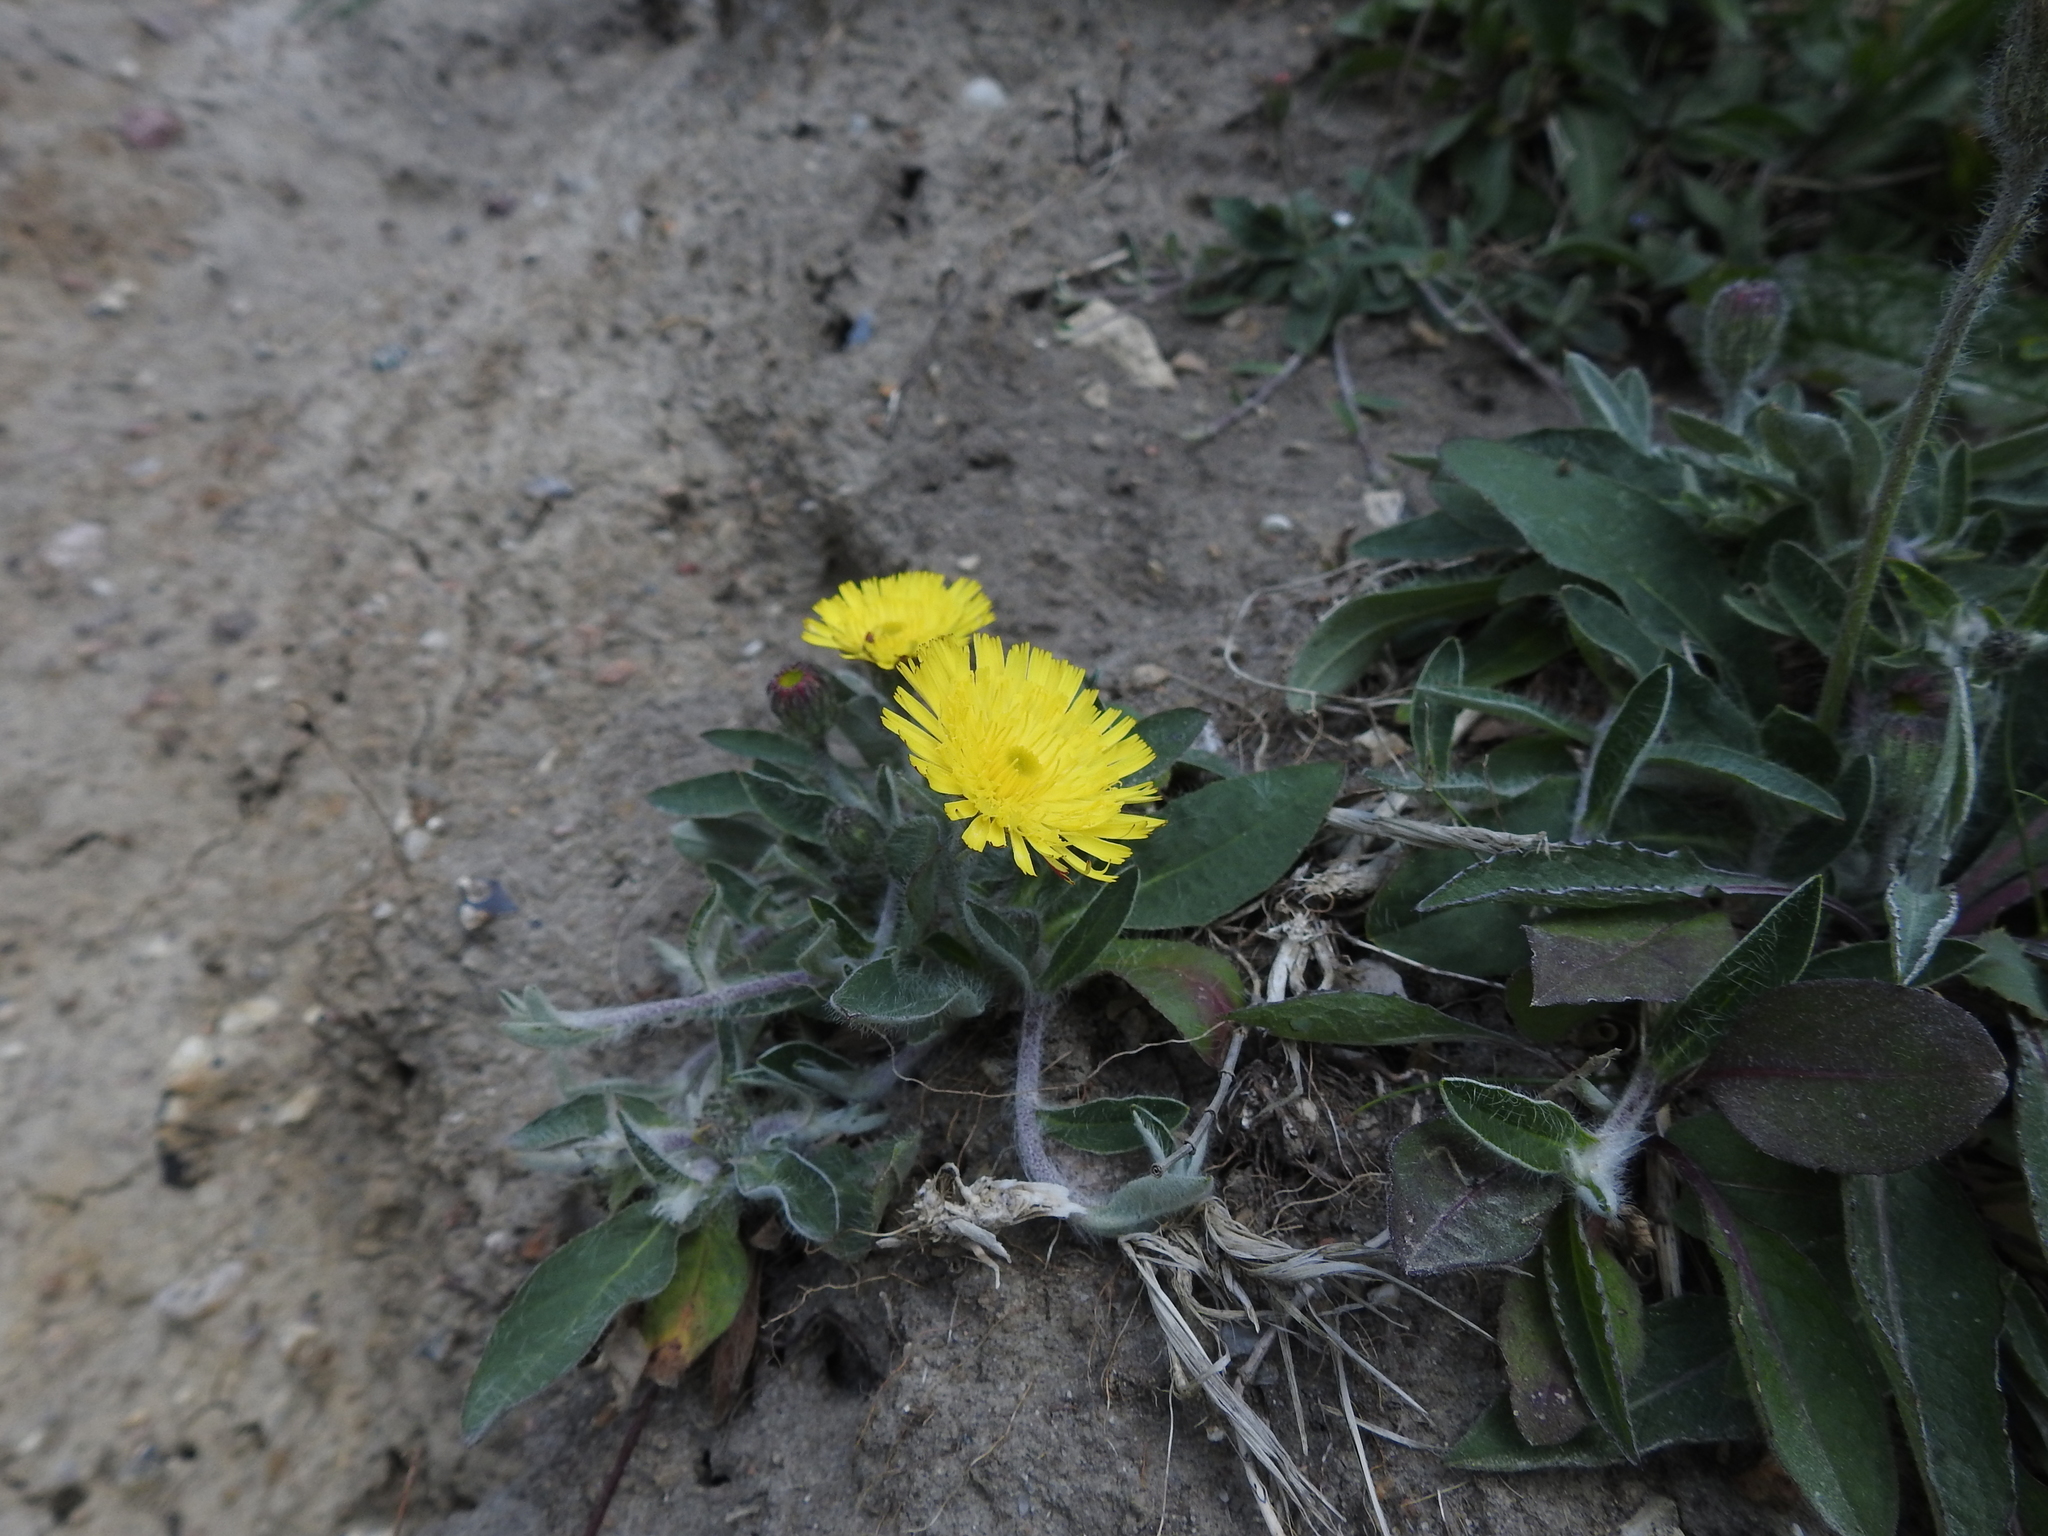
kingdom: Plantae
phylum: Tracheophyta
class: Magnoliopsida
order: Asterales
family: Asteraceae
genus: Pilosella
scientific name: Pilosella officinarum
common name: Mouse-ear hawkweed
